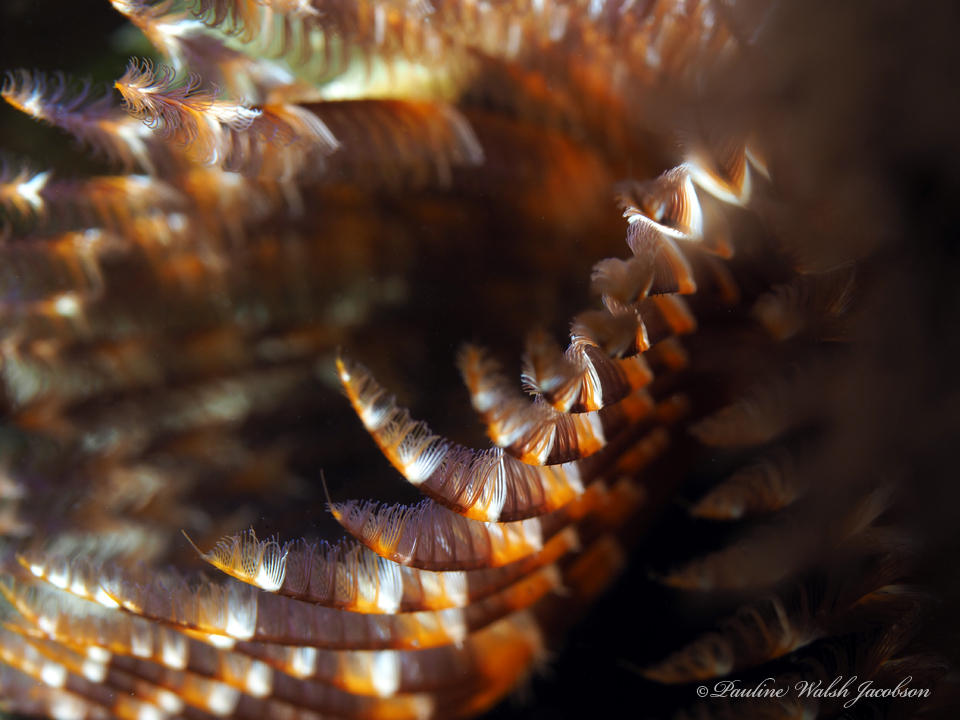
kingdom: Animalia
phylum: Annelida
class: Polychaeta
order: Sabellida
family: Sabellidae
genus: Branchiomma
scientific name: Branchiomma nigromaculatum
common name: Black-spotted feather duster
